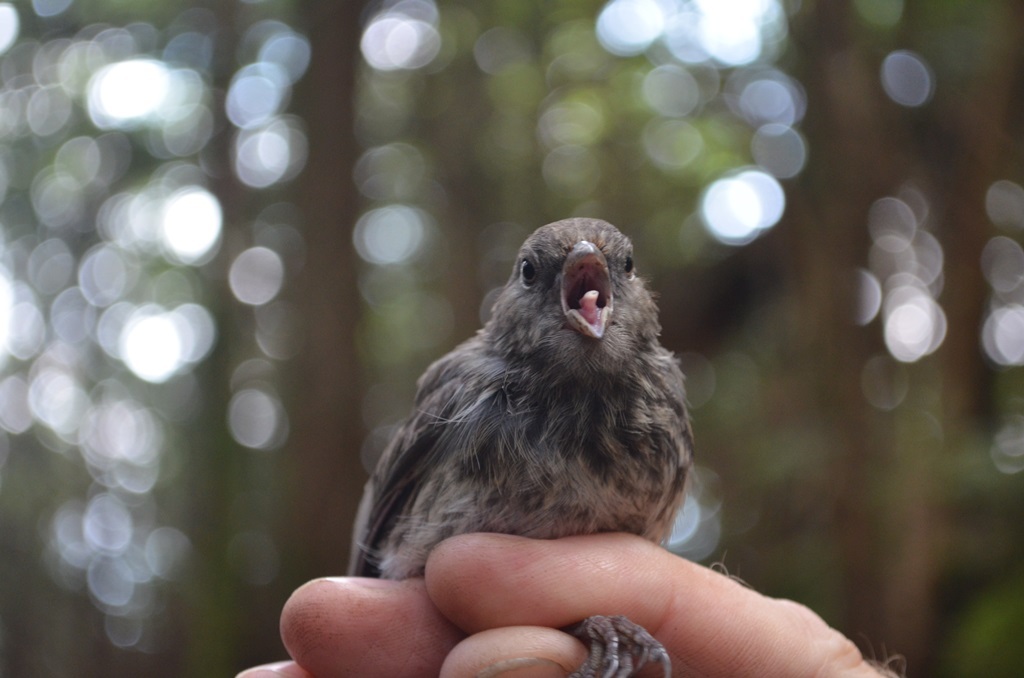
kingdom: Animalia
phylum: Chordata
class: Aves
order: Passeriformes
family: Passerellidae
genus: Junco
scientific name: Junco hyemalis
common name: Dark-eyed junco
